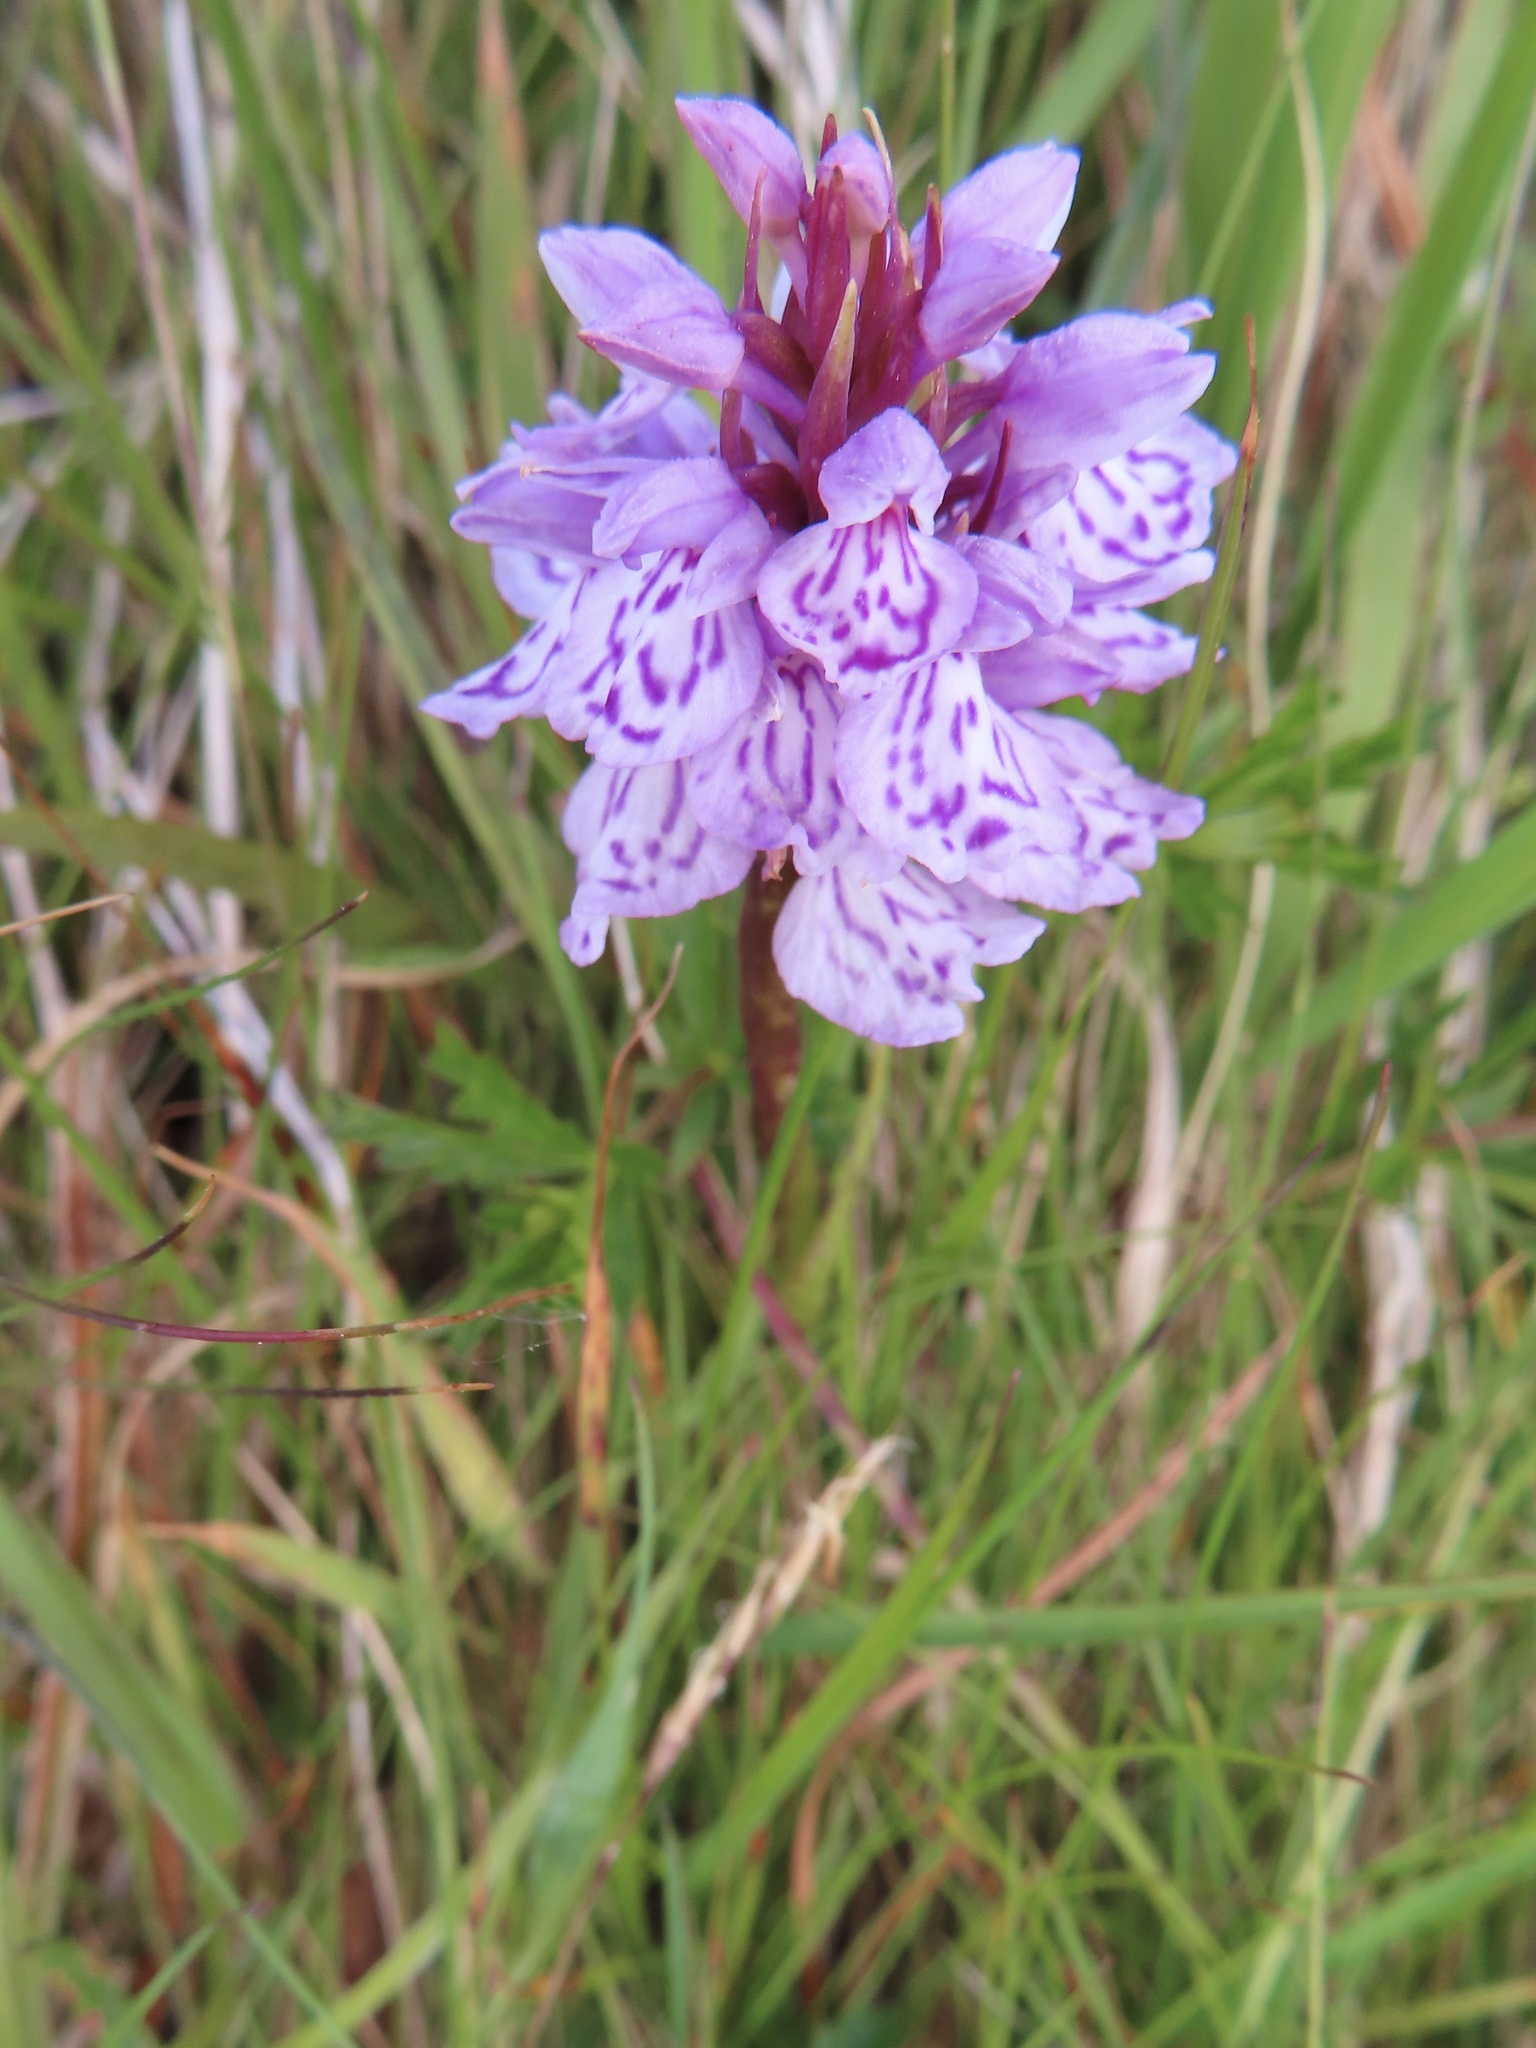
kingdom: Plantae
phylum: Tracheophyta
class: Liliopsida
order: Asparagales
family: Orchidaceae
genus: Dactylorhiza
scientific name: Dactylorhiza maculata
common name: Heath spotted-orchid
